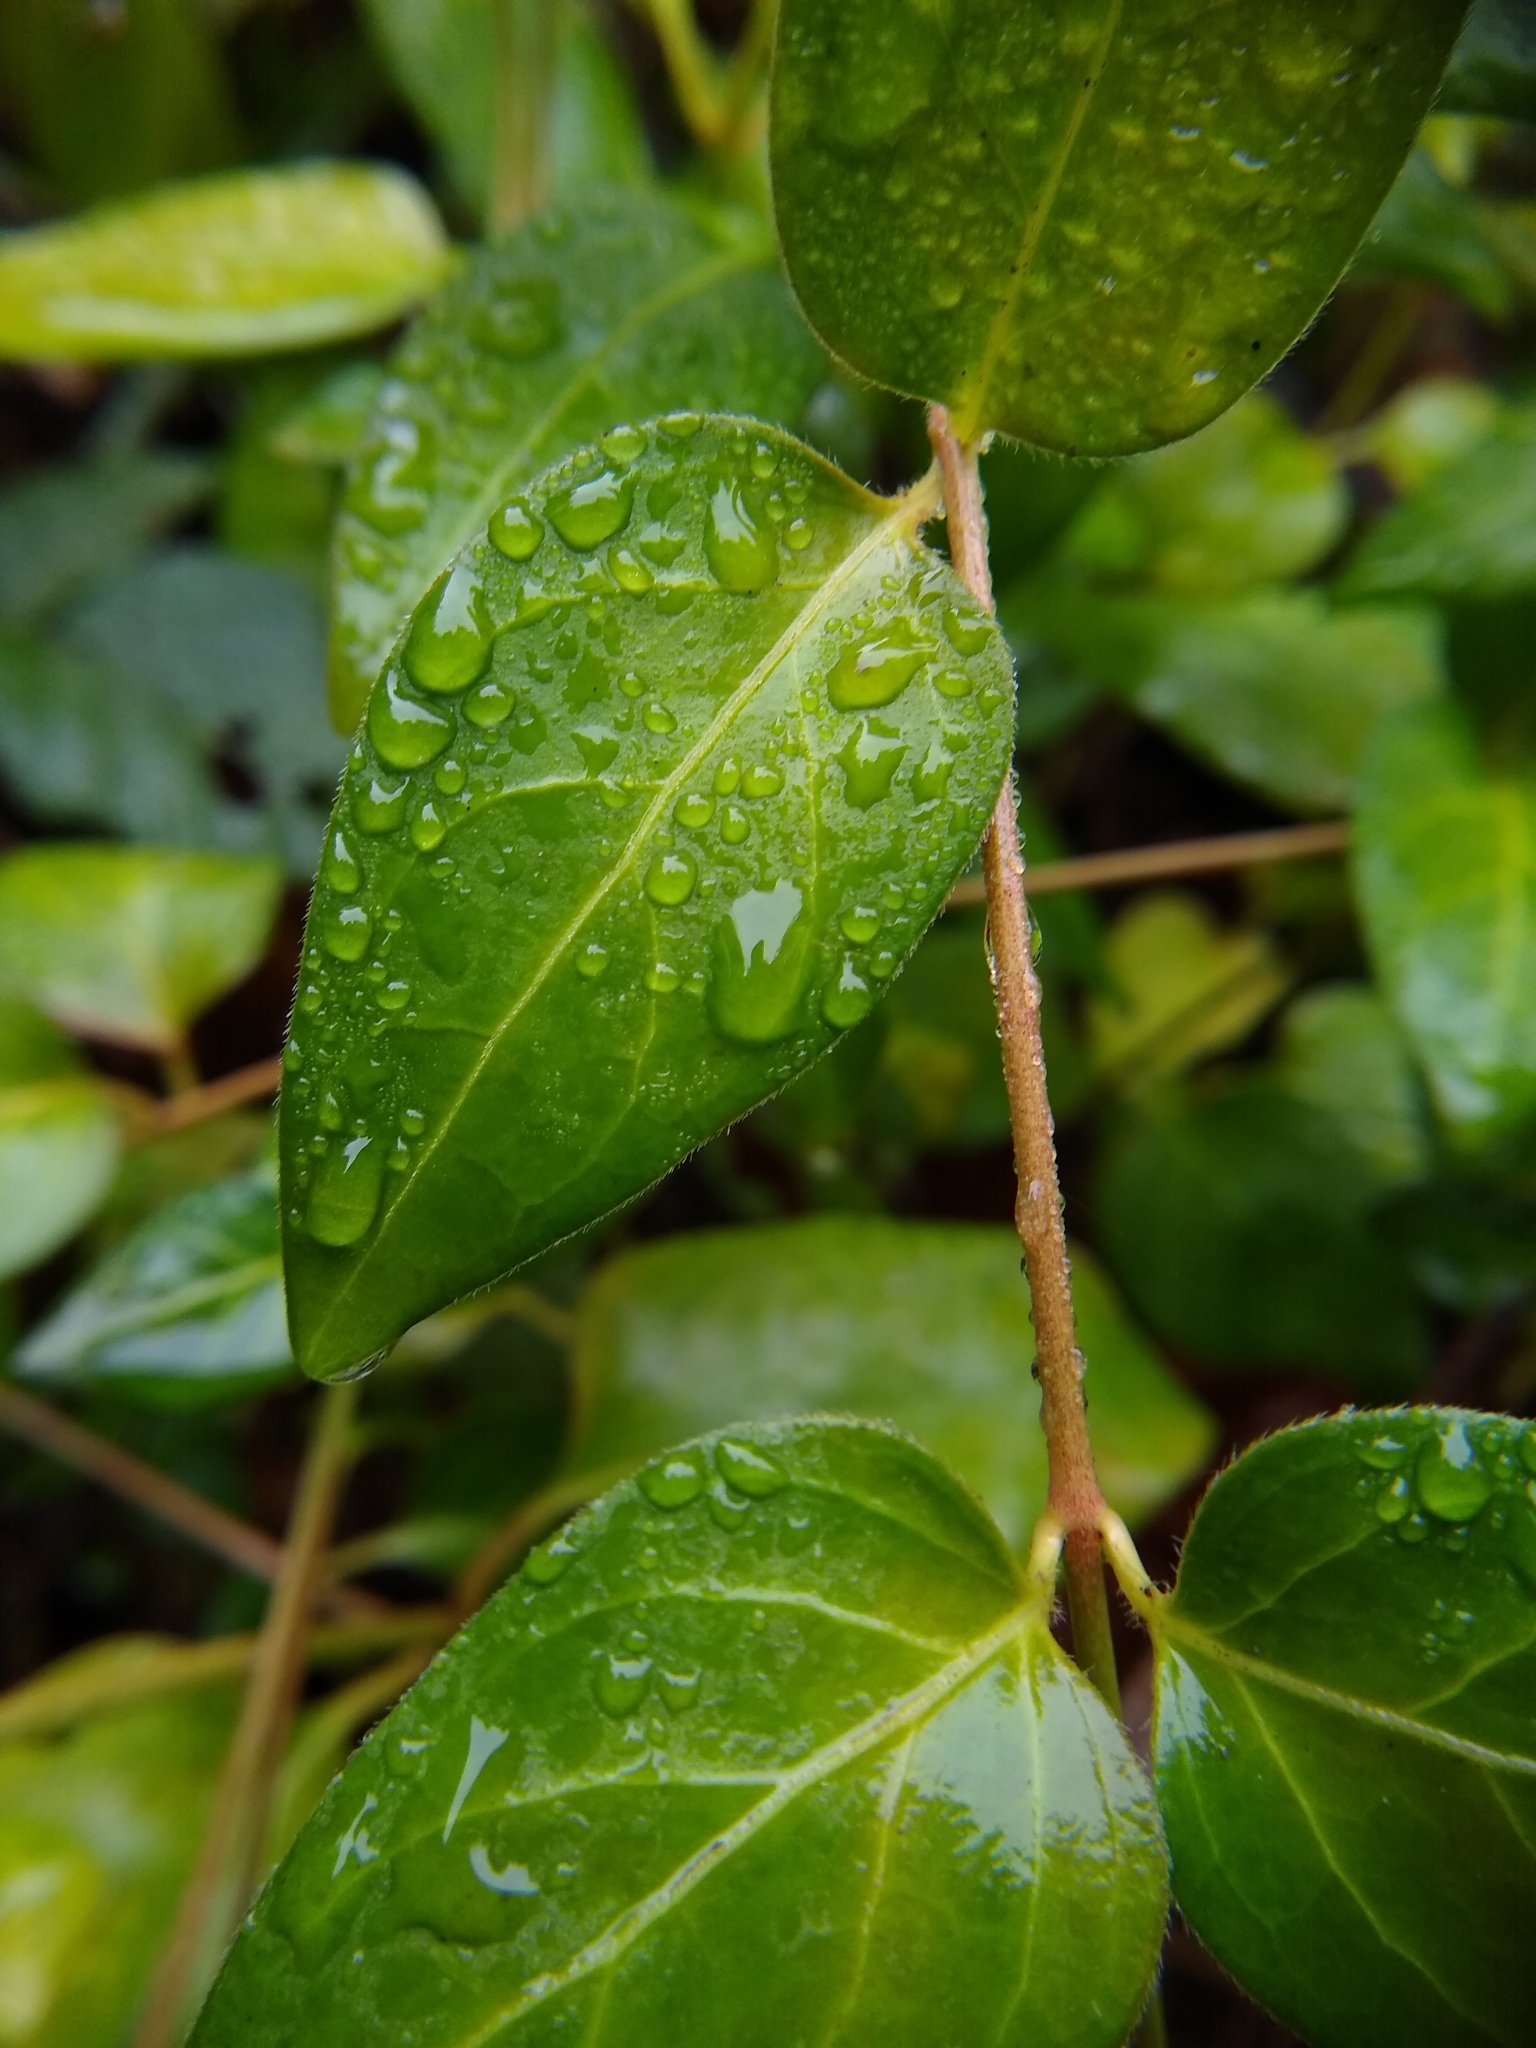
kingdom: Plantae
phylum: Tracheophyta
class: Magnoliopsida
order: Gentianales
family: Apocynaceae
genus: Vinca
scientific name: Vinca major
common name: Greater periwinkle
